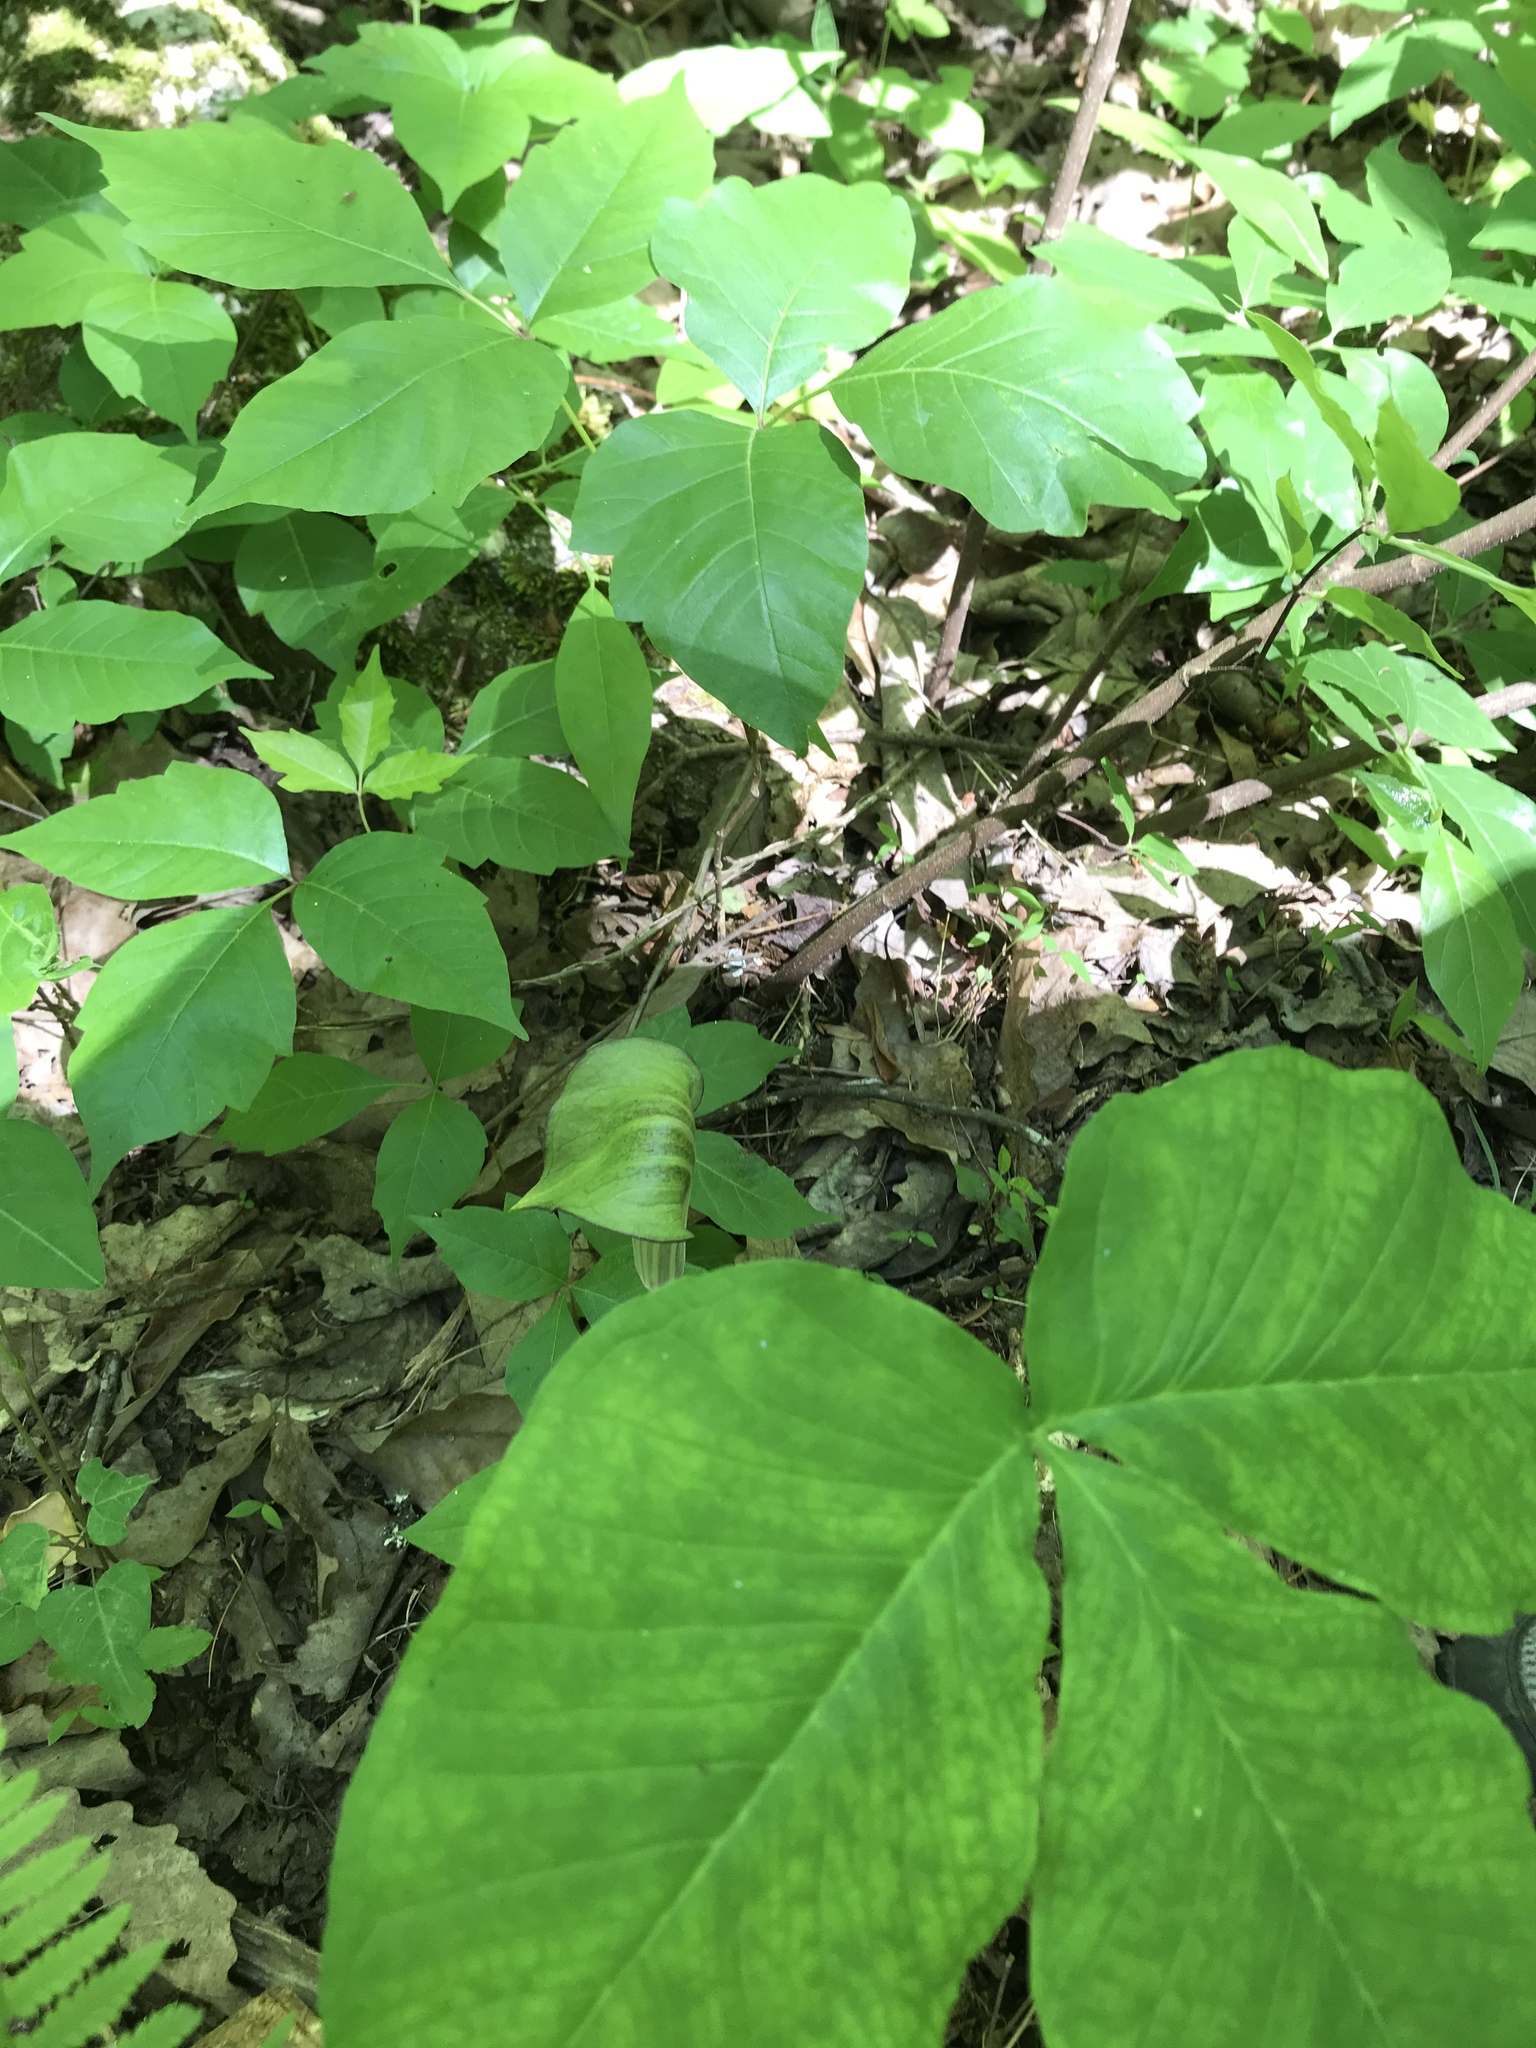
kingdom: Plantae
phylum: Tracheophyta
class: Liliopsida
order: Alismatales
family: Araceae
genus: Arisaema
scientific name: Arisaema triphyllum
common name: Jack-in-the-pulpit
